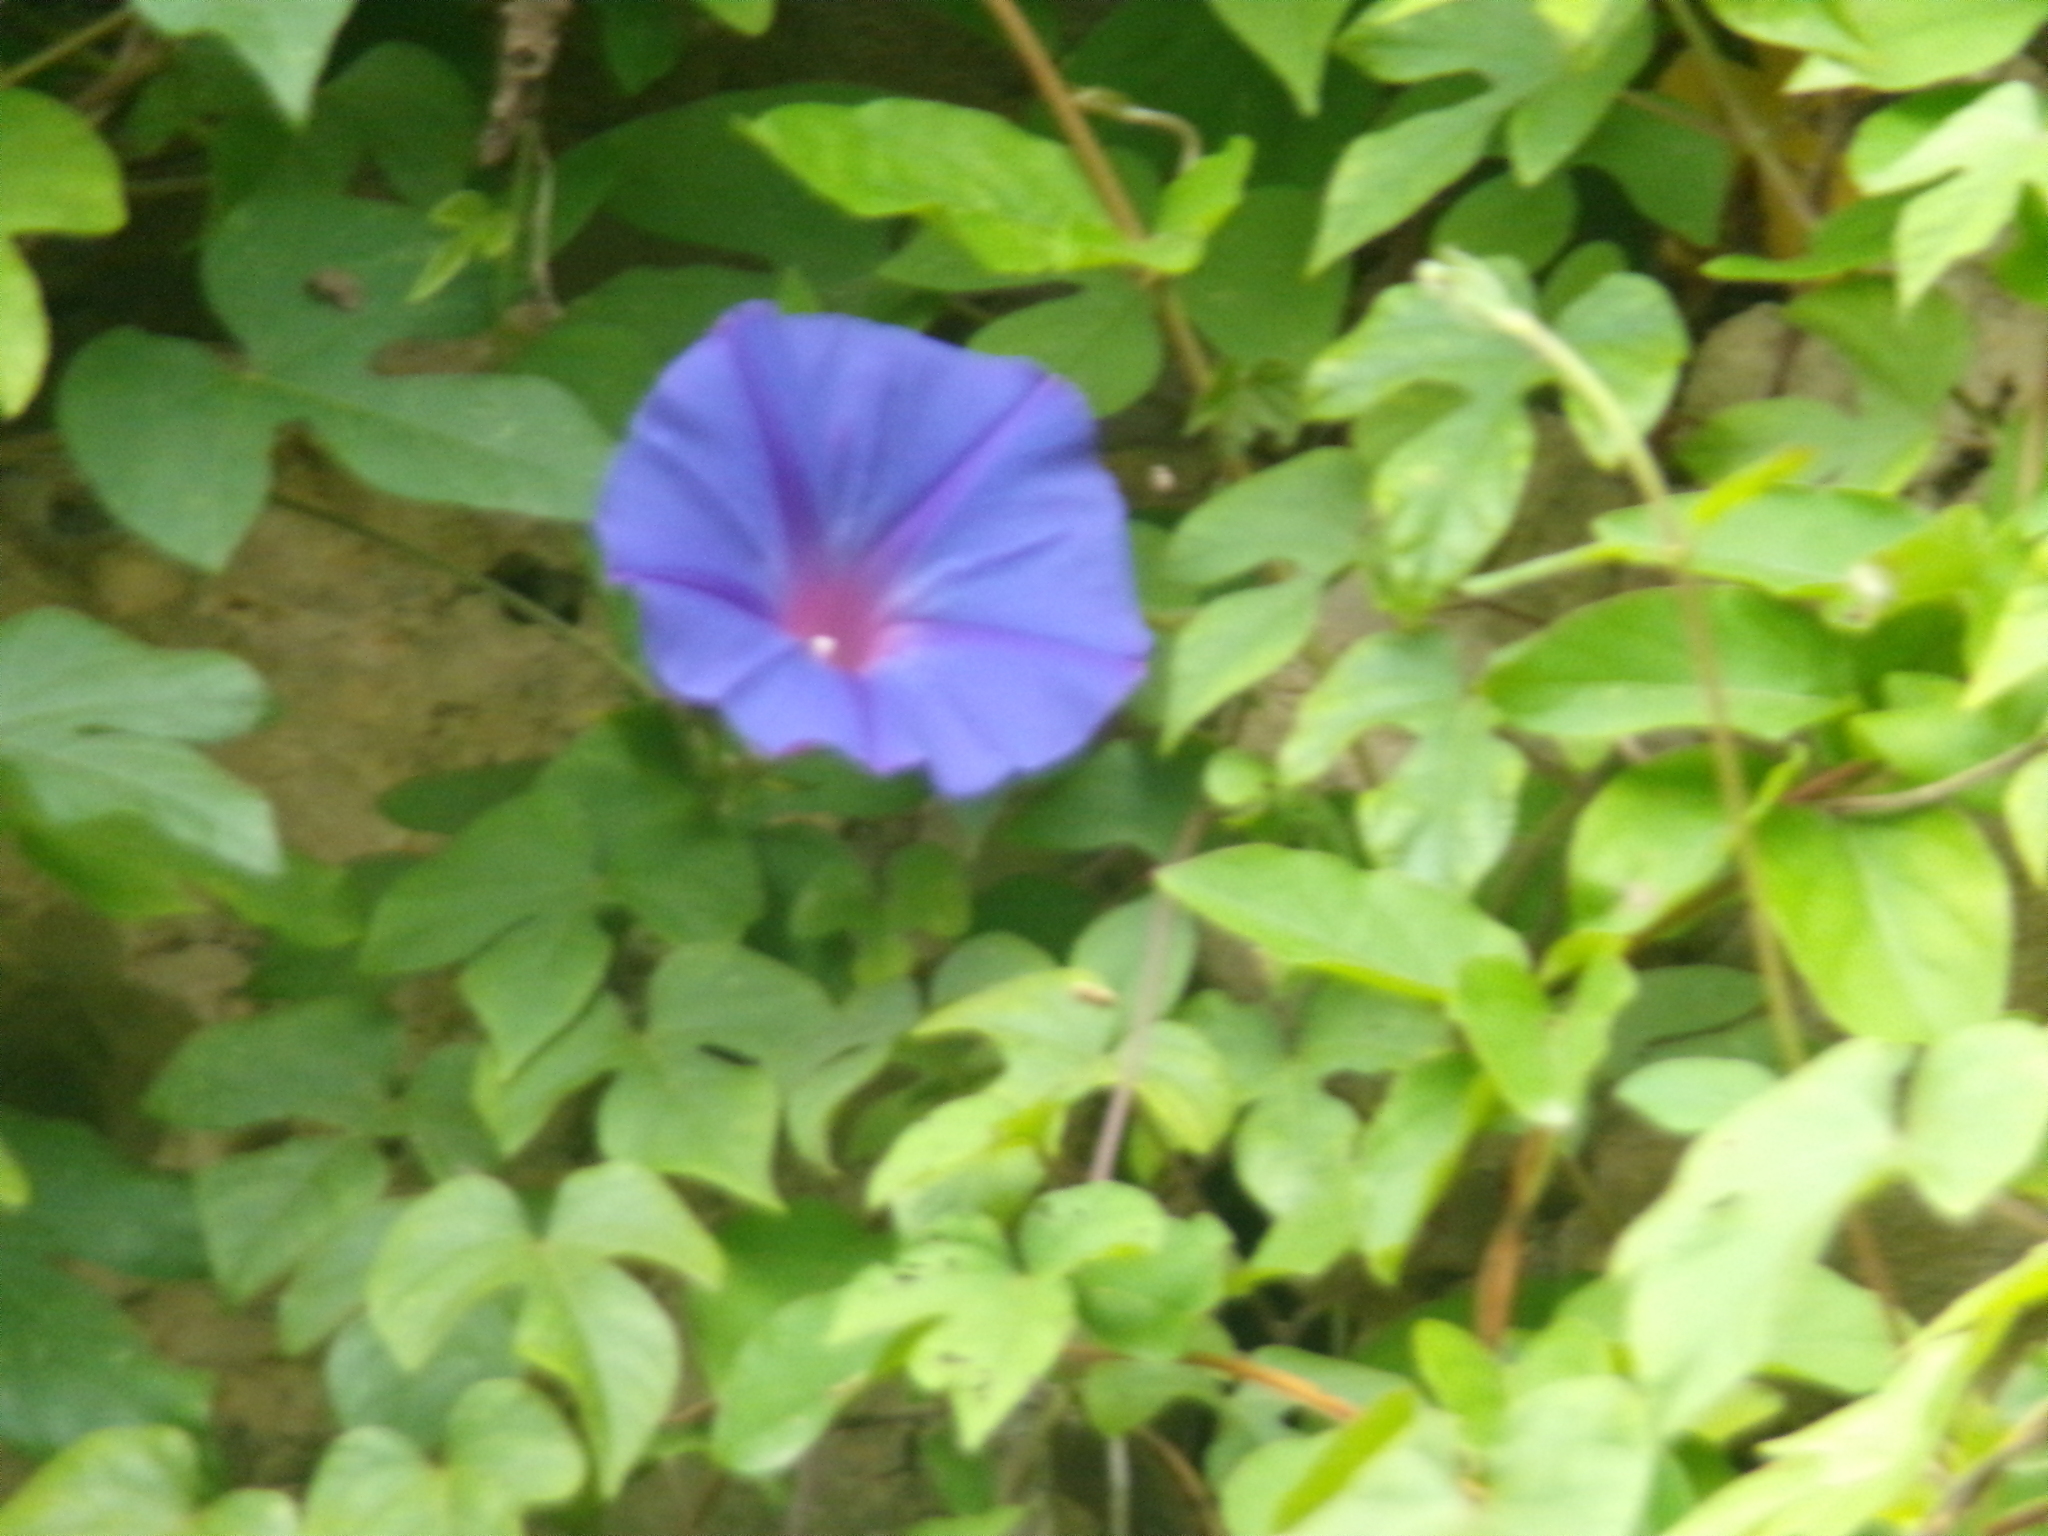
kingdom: Plantae
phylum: Tracheophyta
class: Magnoliopsida
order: Solanales
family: Convolvulaceae
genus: Ipomoea
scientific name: Ipomoea indica
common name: Blue dawnflower
